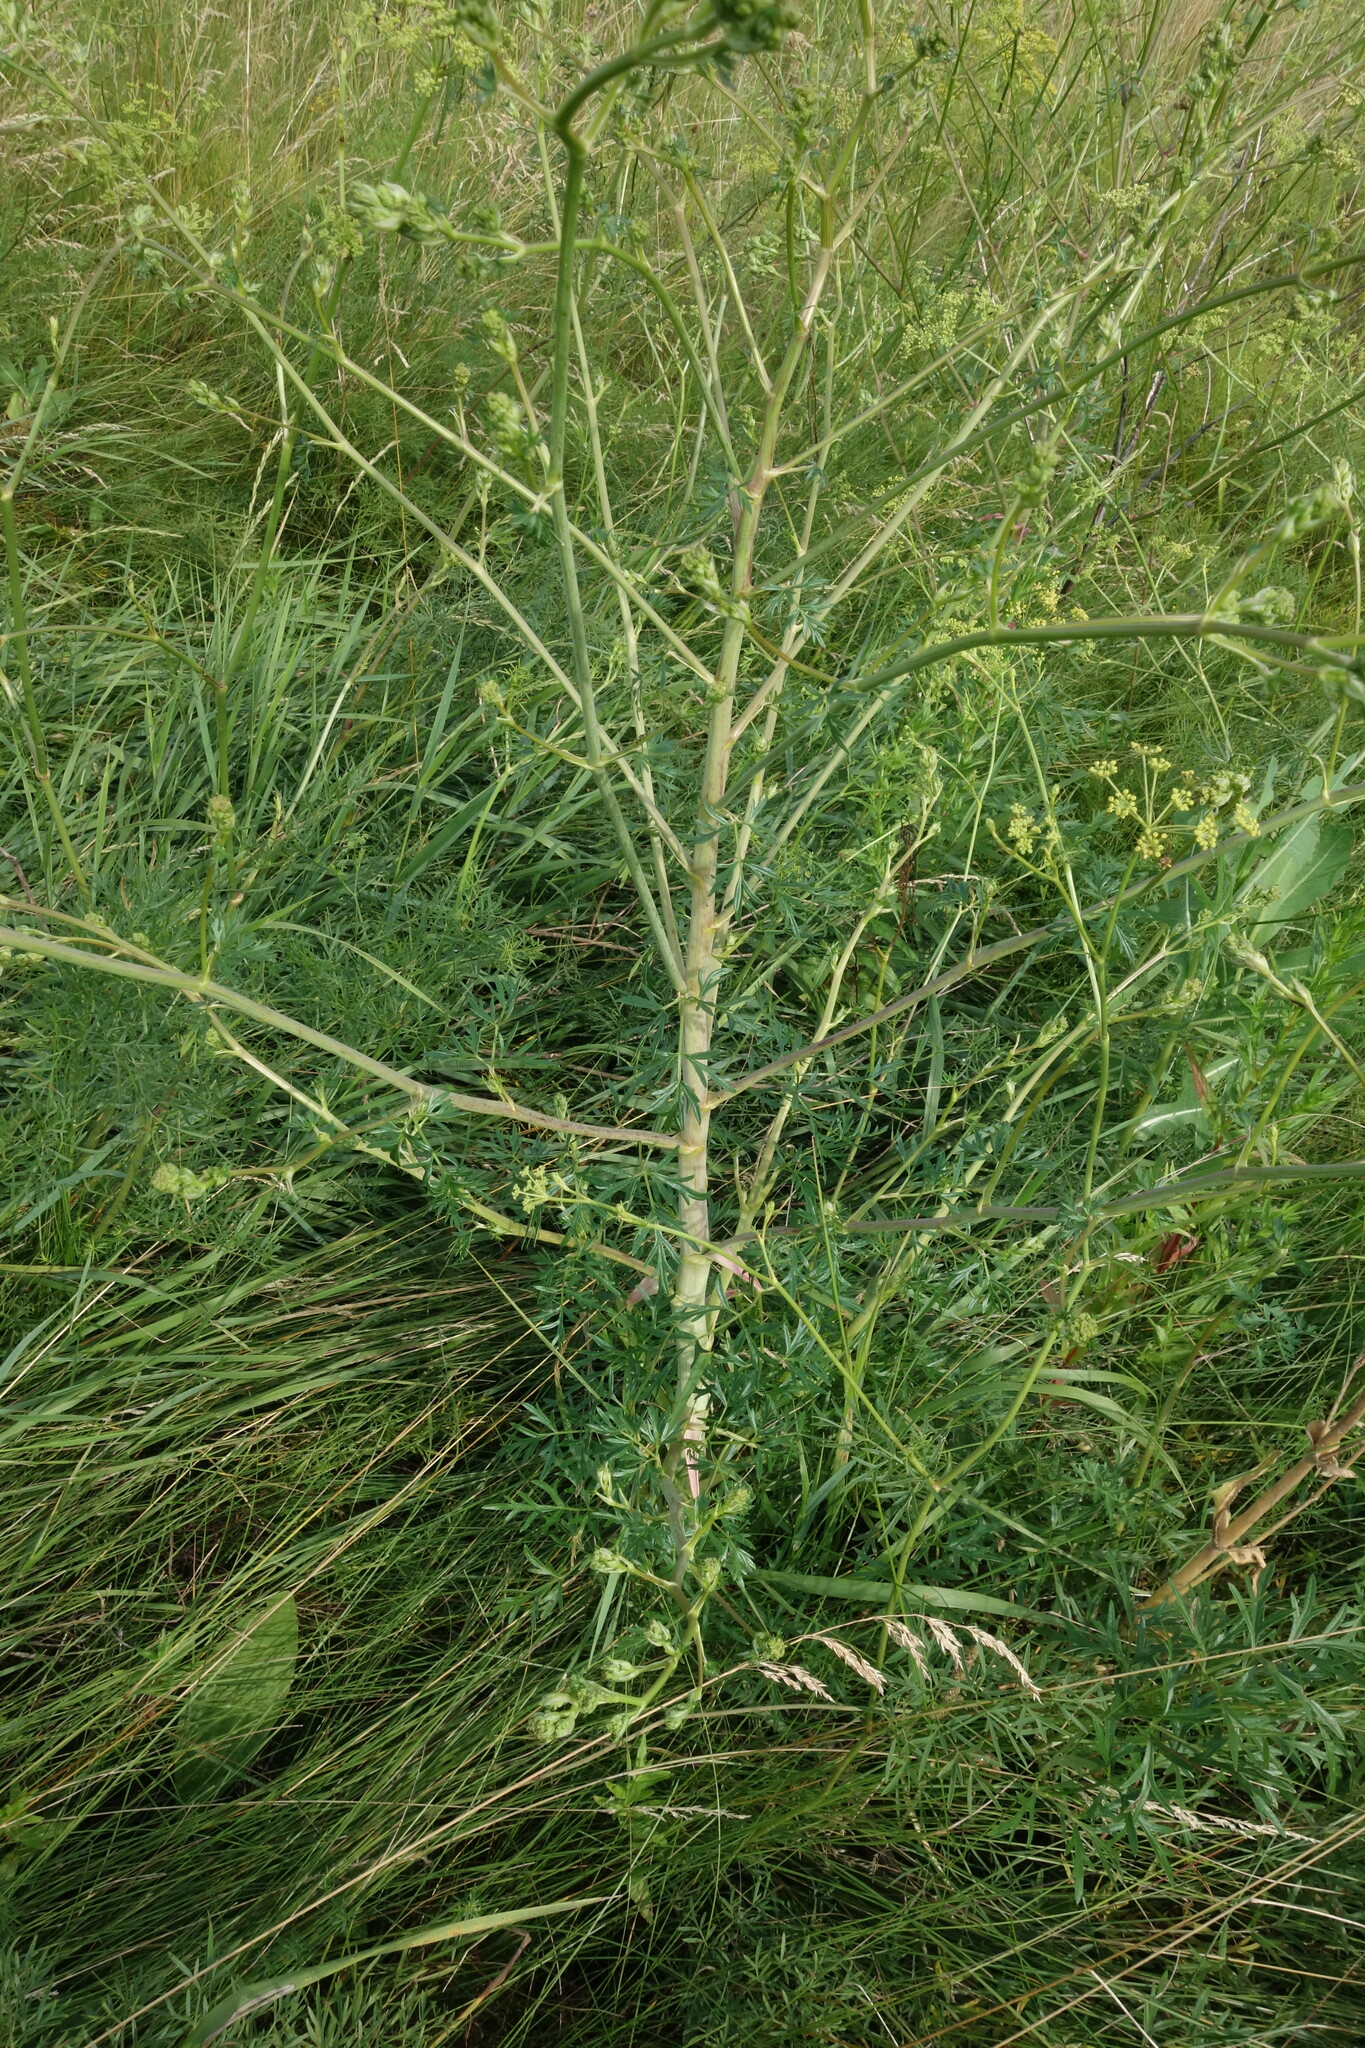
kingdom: Plantae
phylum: Tracheophyta
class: Magnoliopsida
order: Apiales
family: Apiaceae
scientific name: Apiaceae
